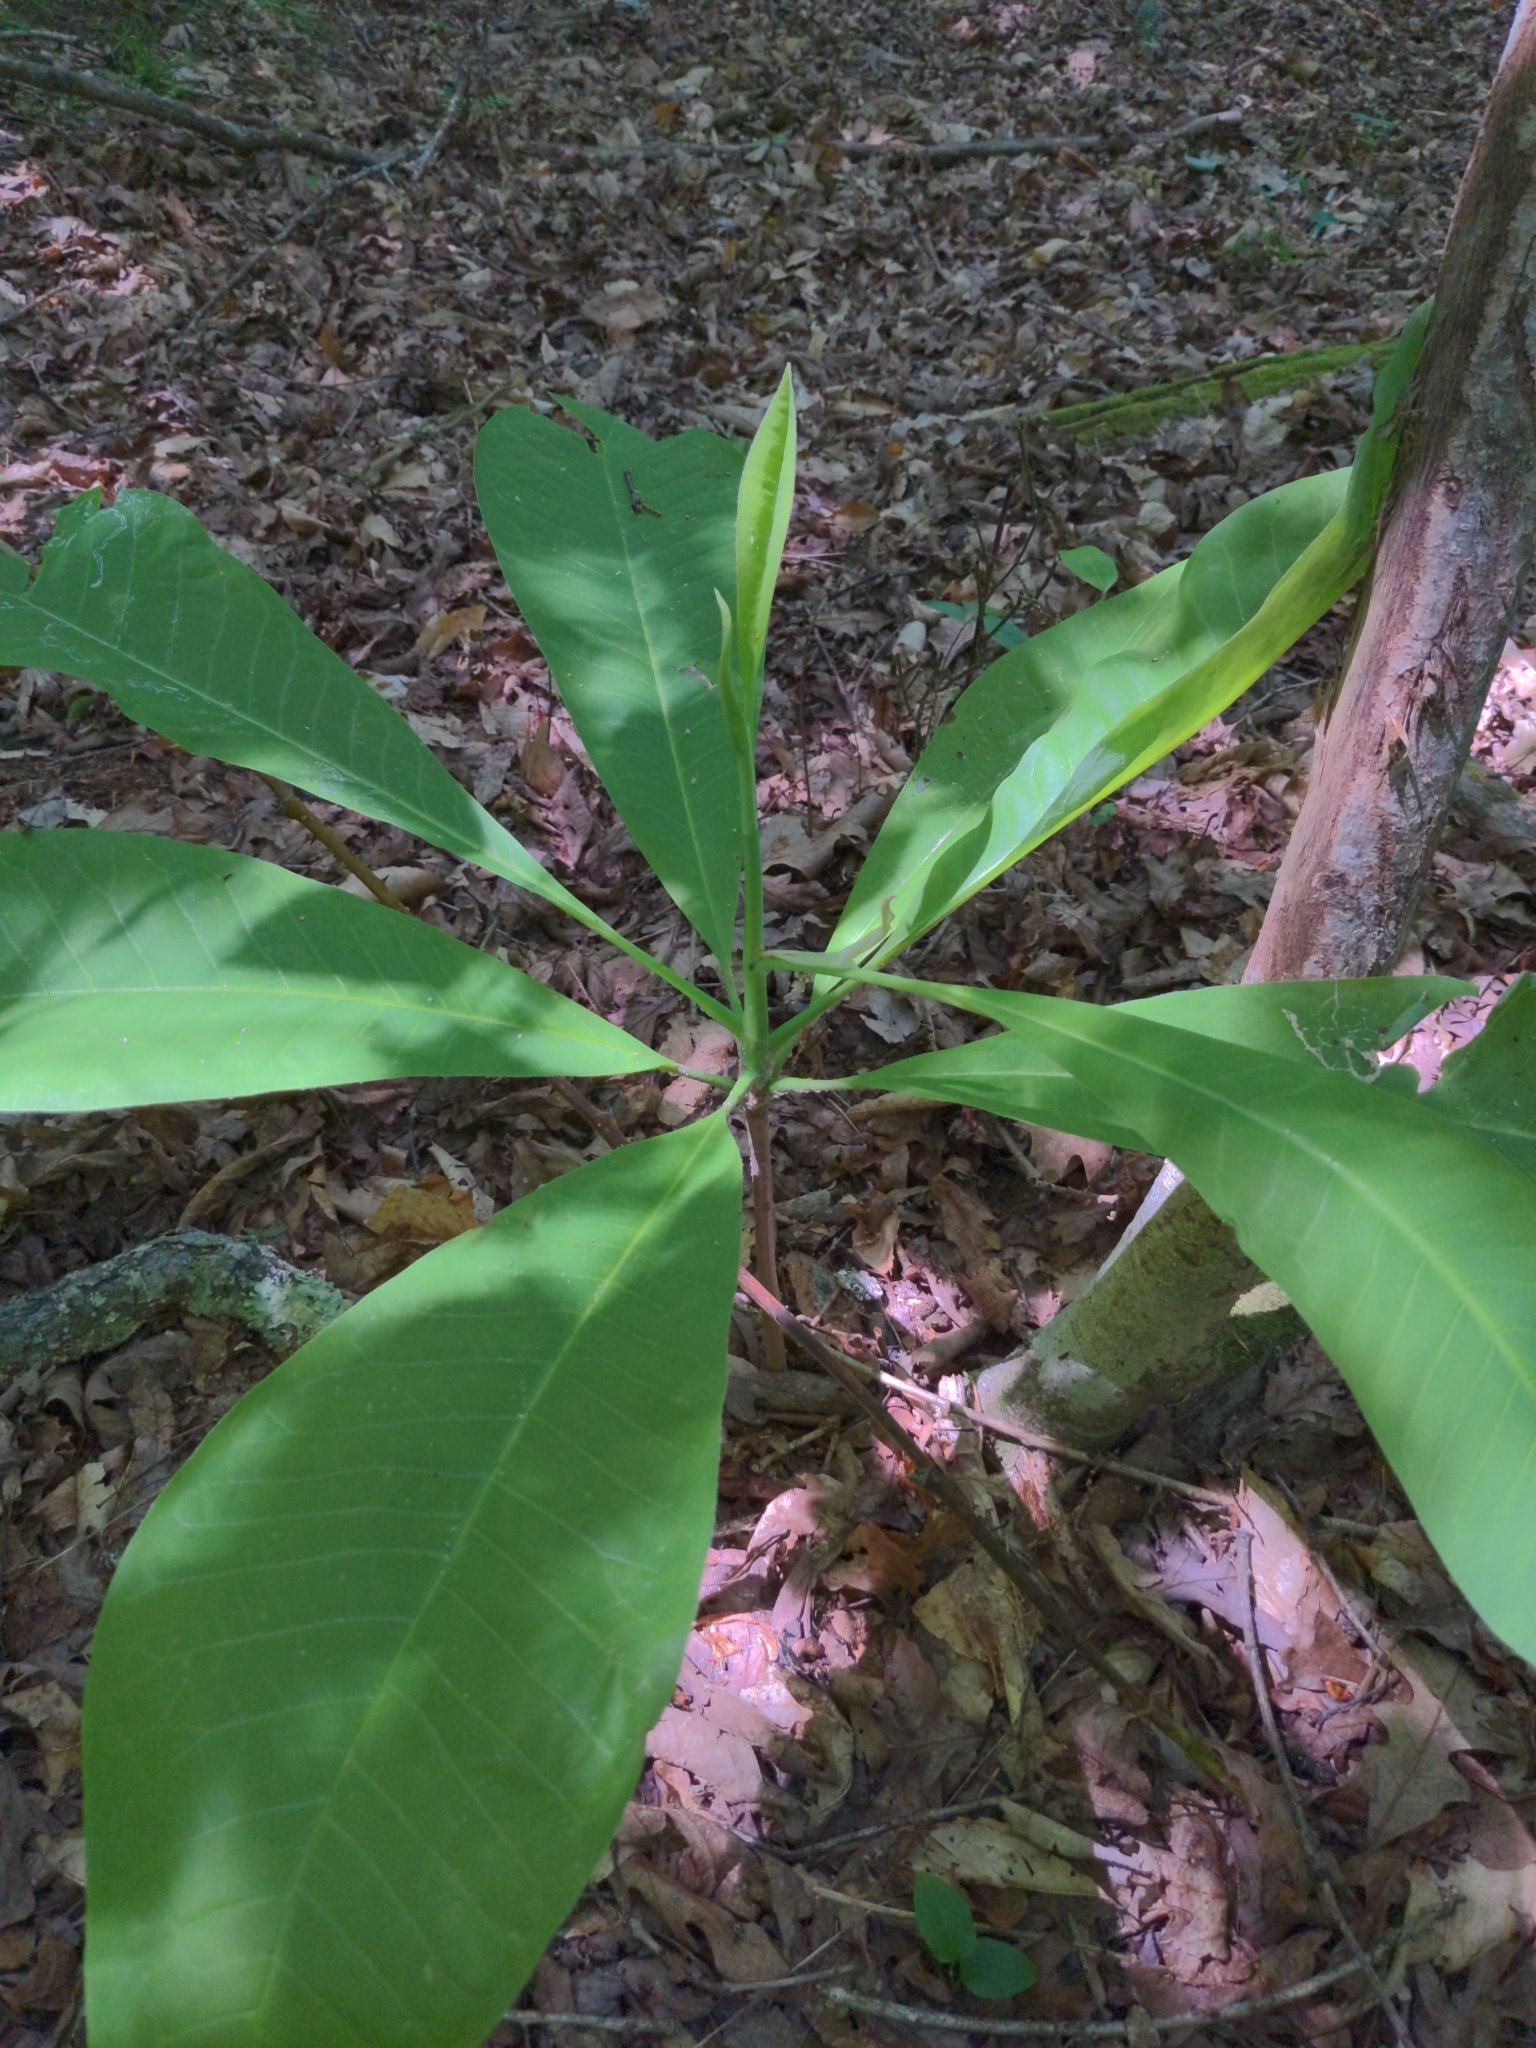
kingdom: Plantae
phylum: Tracheophyta
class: Magnoliopsida
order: Magnoliales
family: Magnoliaceae
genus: Magnolia
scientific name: Magnolia tripetala
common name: Umbrella magnolia
